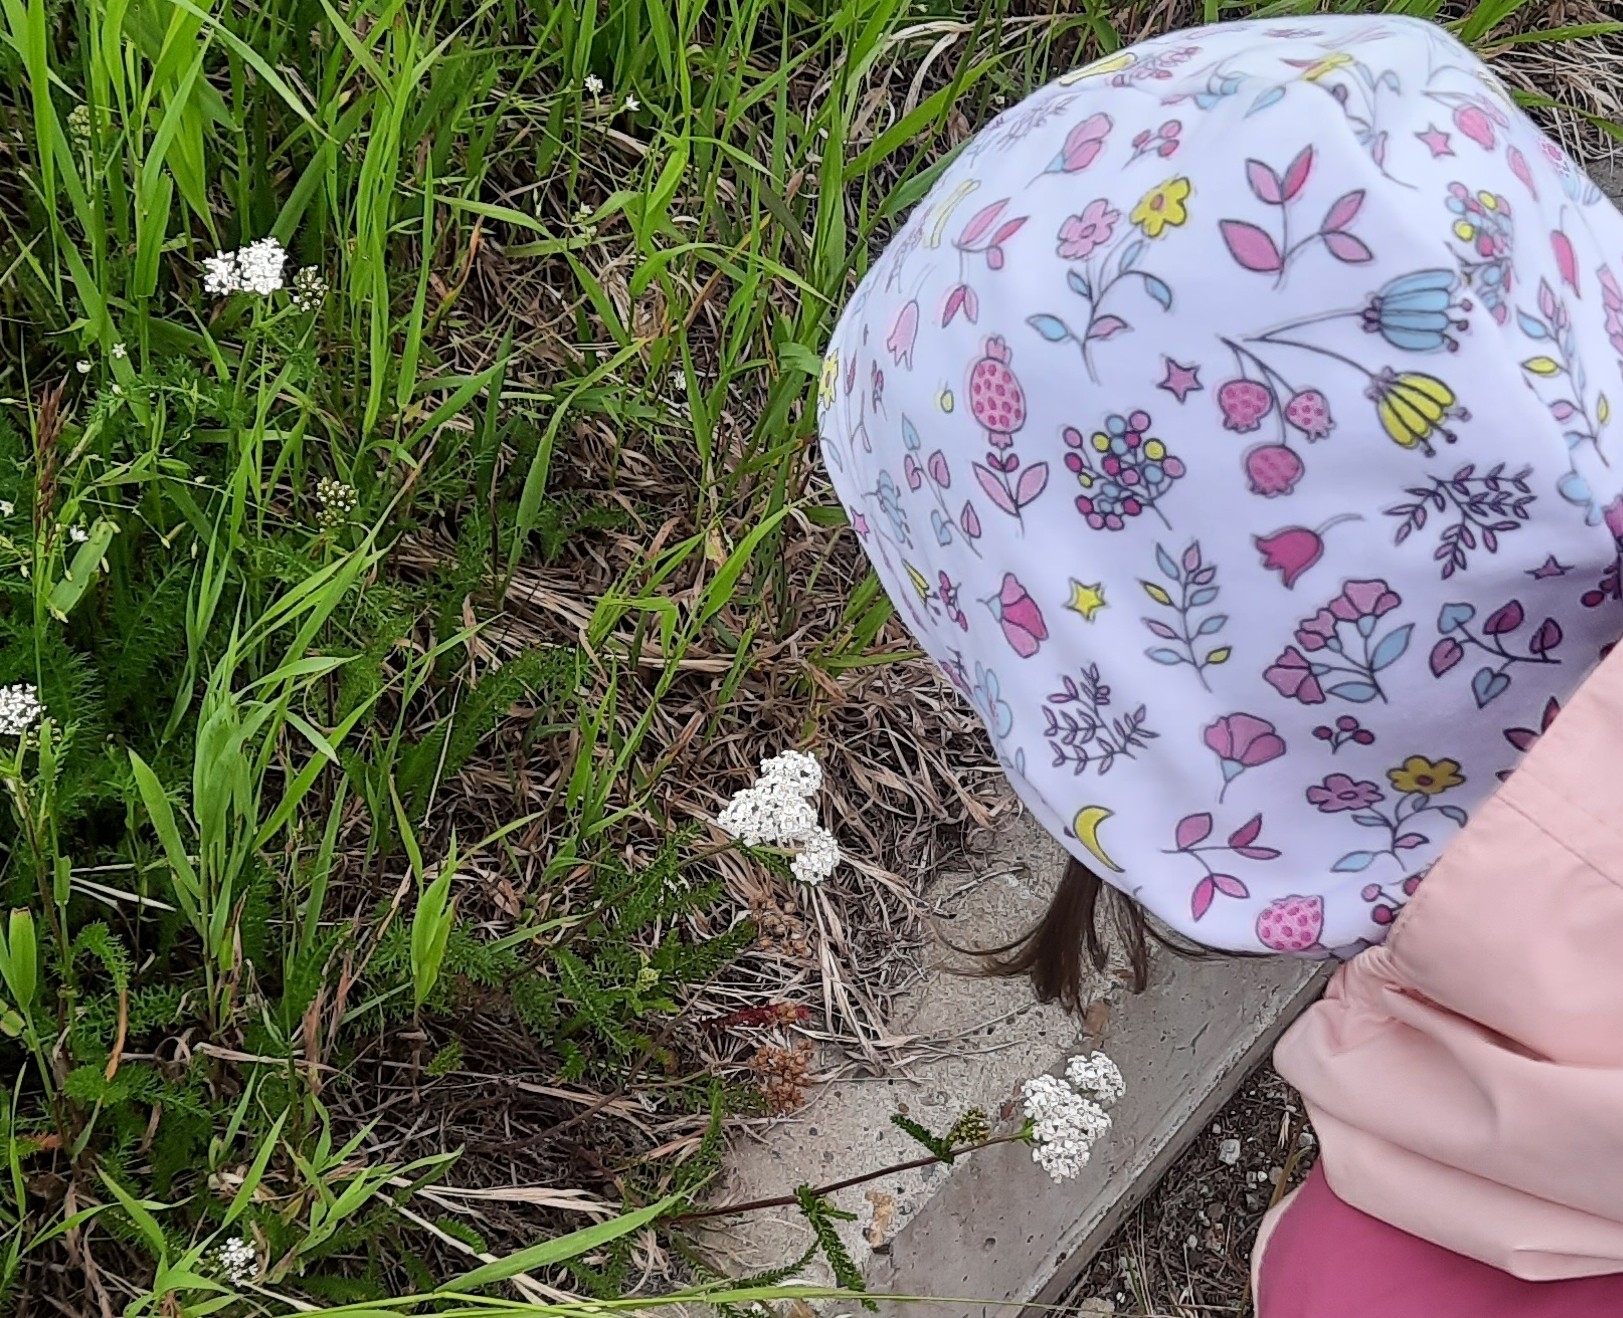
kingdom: Plantae
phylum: Tracheophyta
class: Magnoliopsida
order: Asterales
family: Asteraceae
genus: Achillea
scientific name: Achillea millefolium
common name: Yarrow
